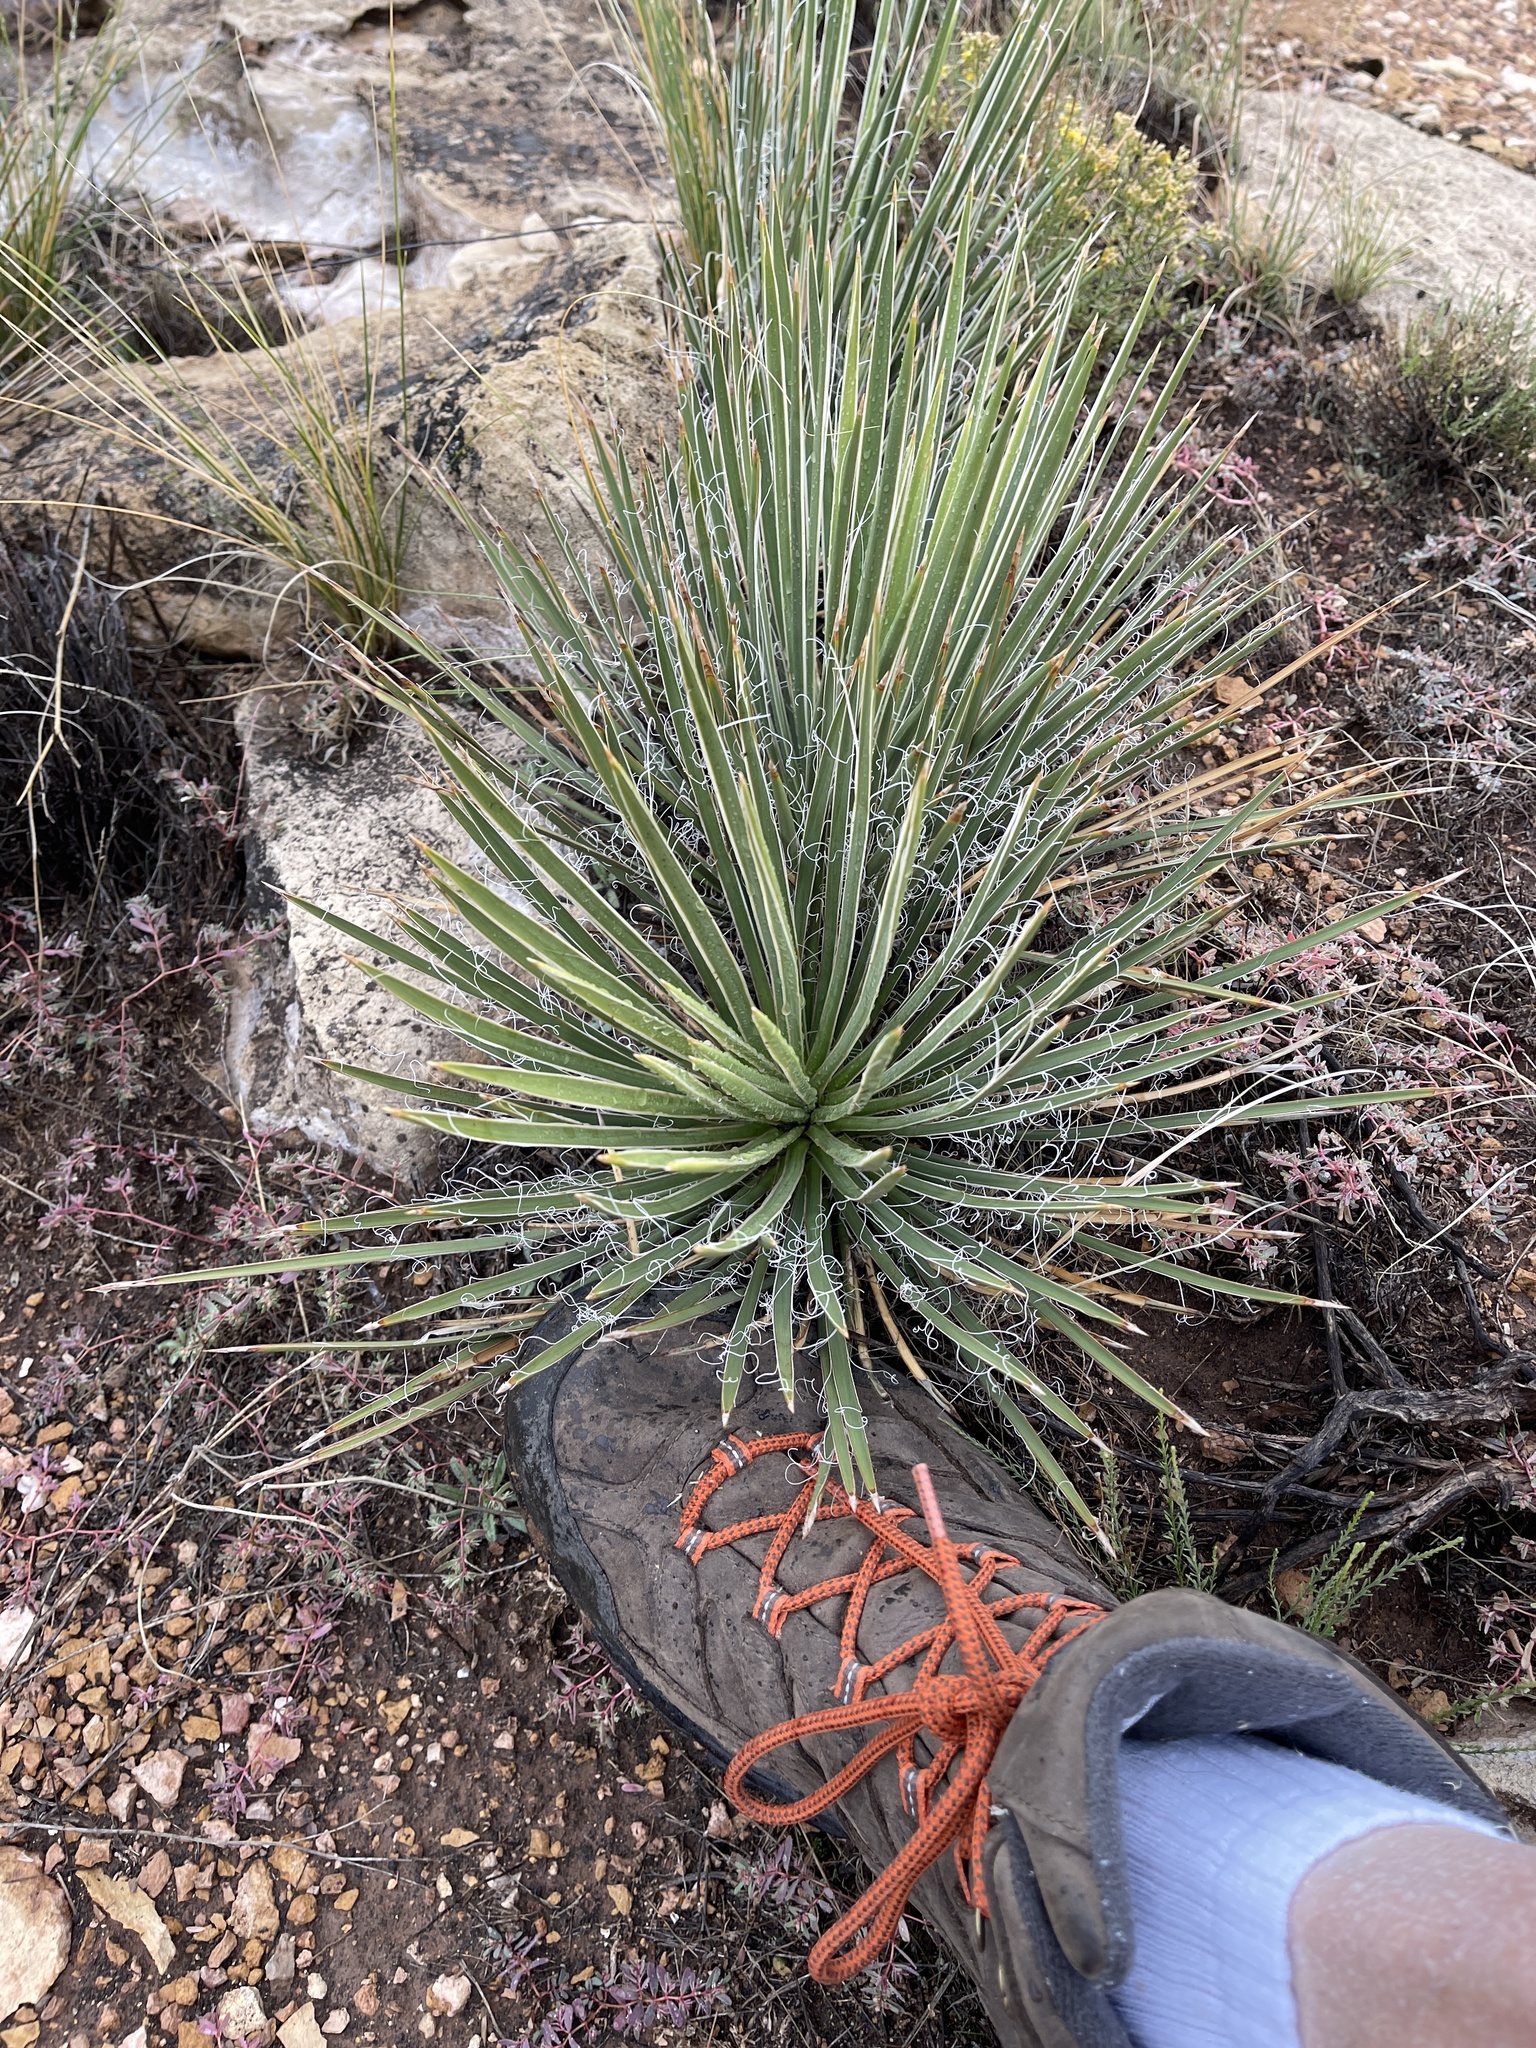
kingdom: Plantae
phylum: Tracheophyta
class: Liliopsida
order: Asparagales
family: Asparagaceae
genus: Yucca
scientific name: Yucca angustissima
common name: Narrowleaf yucca
